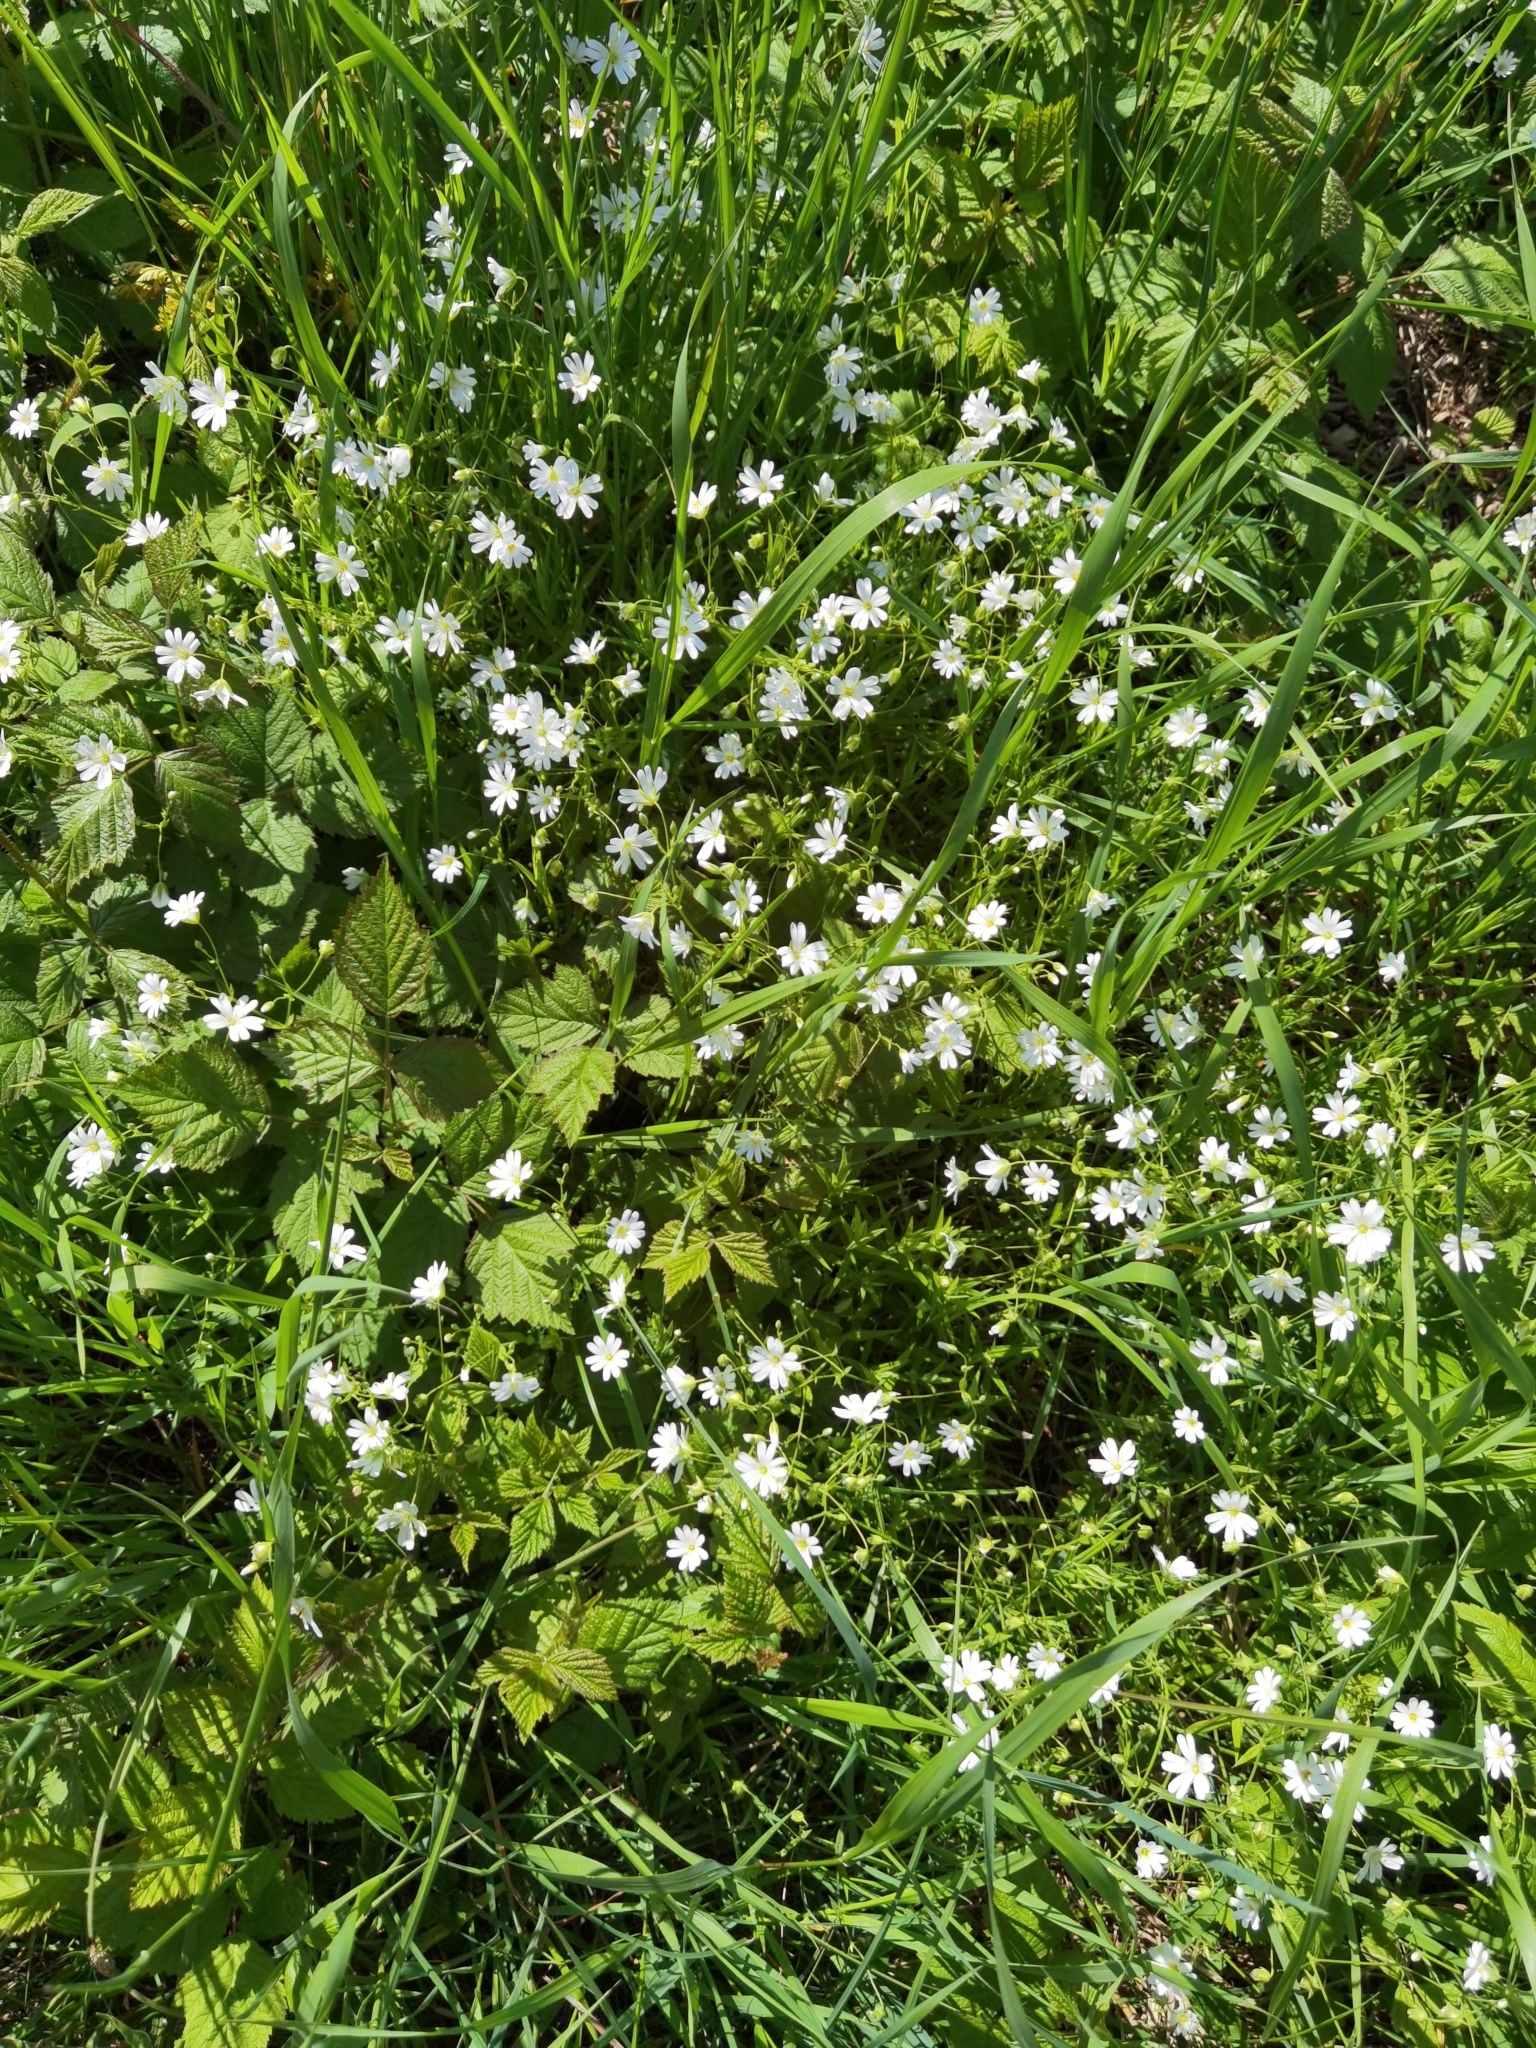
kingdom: Plantae
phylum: Tracheophyta
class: Magnoliopsida
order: Caryophyllales
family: Caryophyllaceae
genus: Rabelera
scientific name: Rabelera holostea
